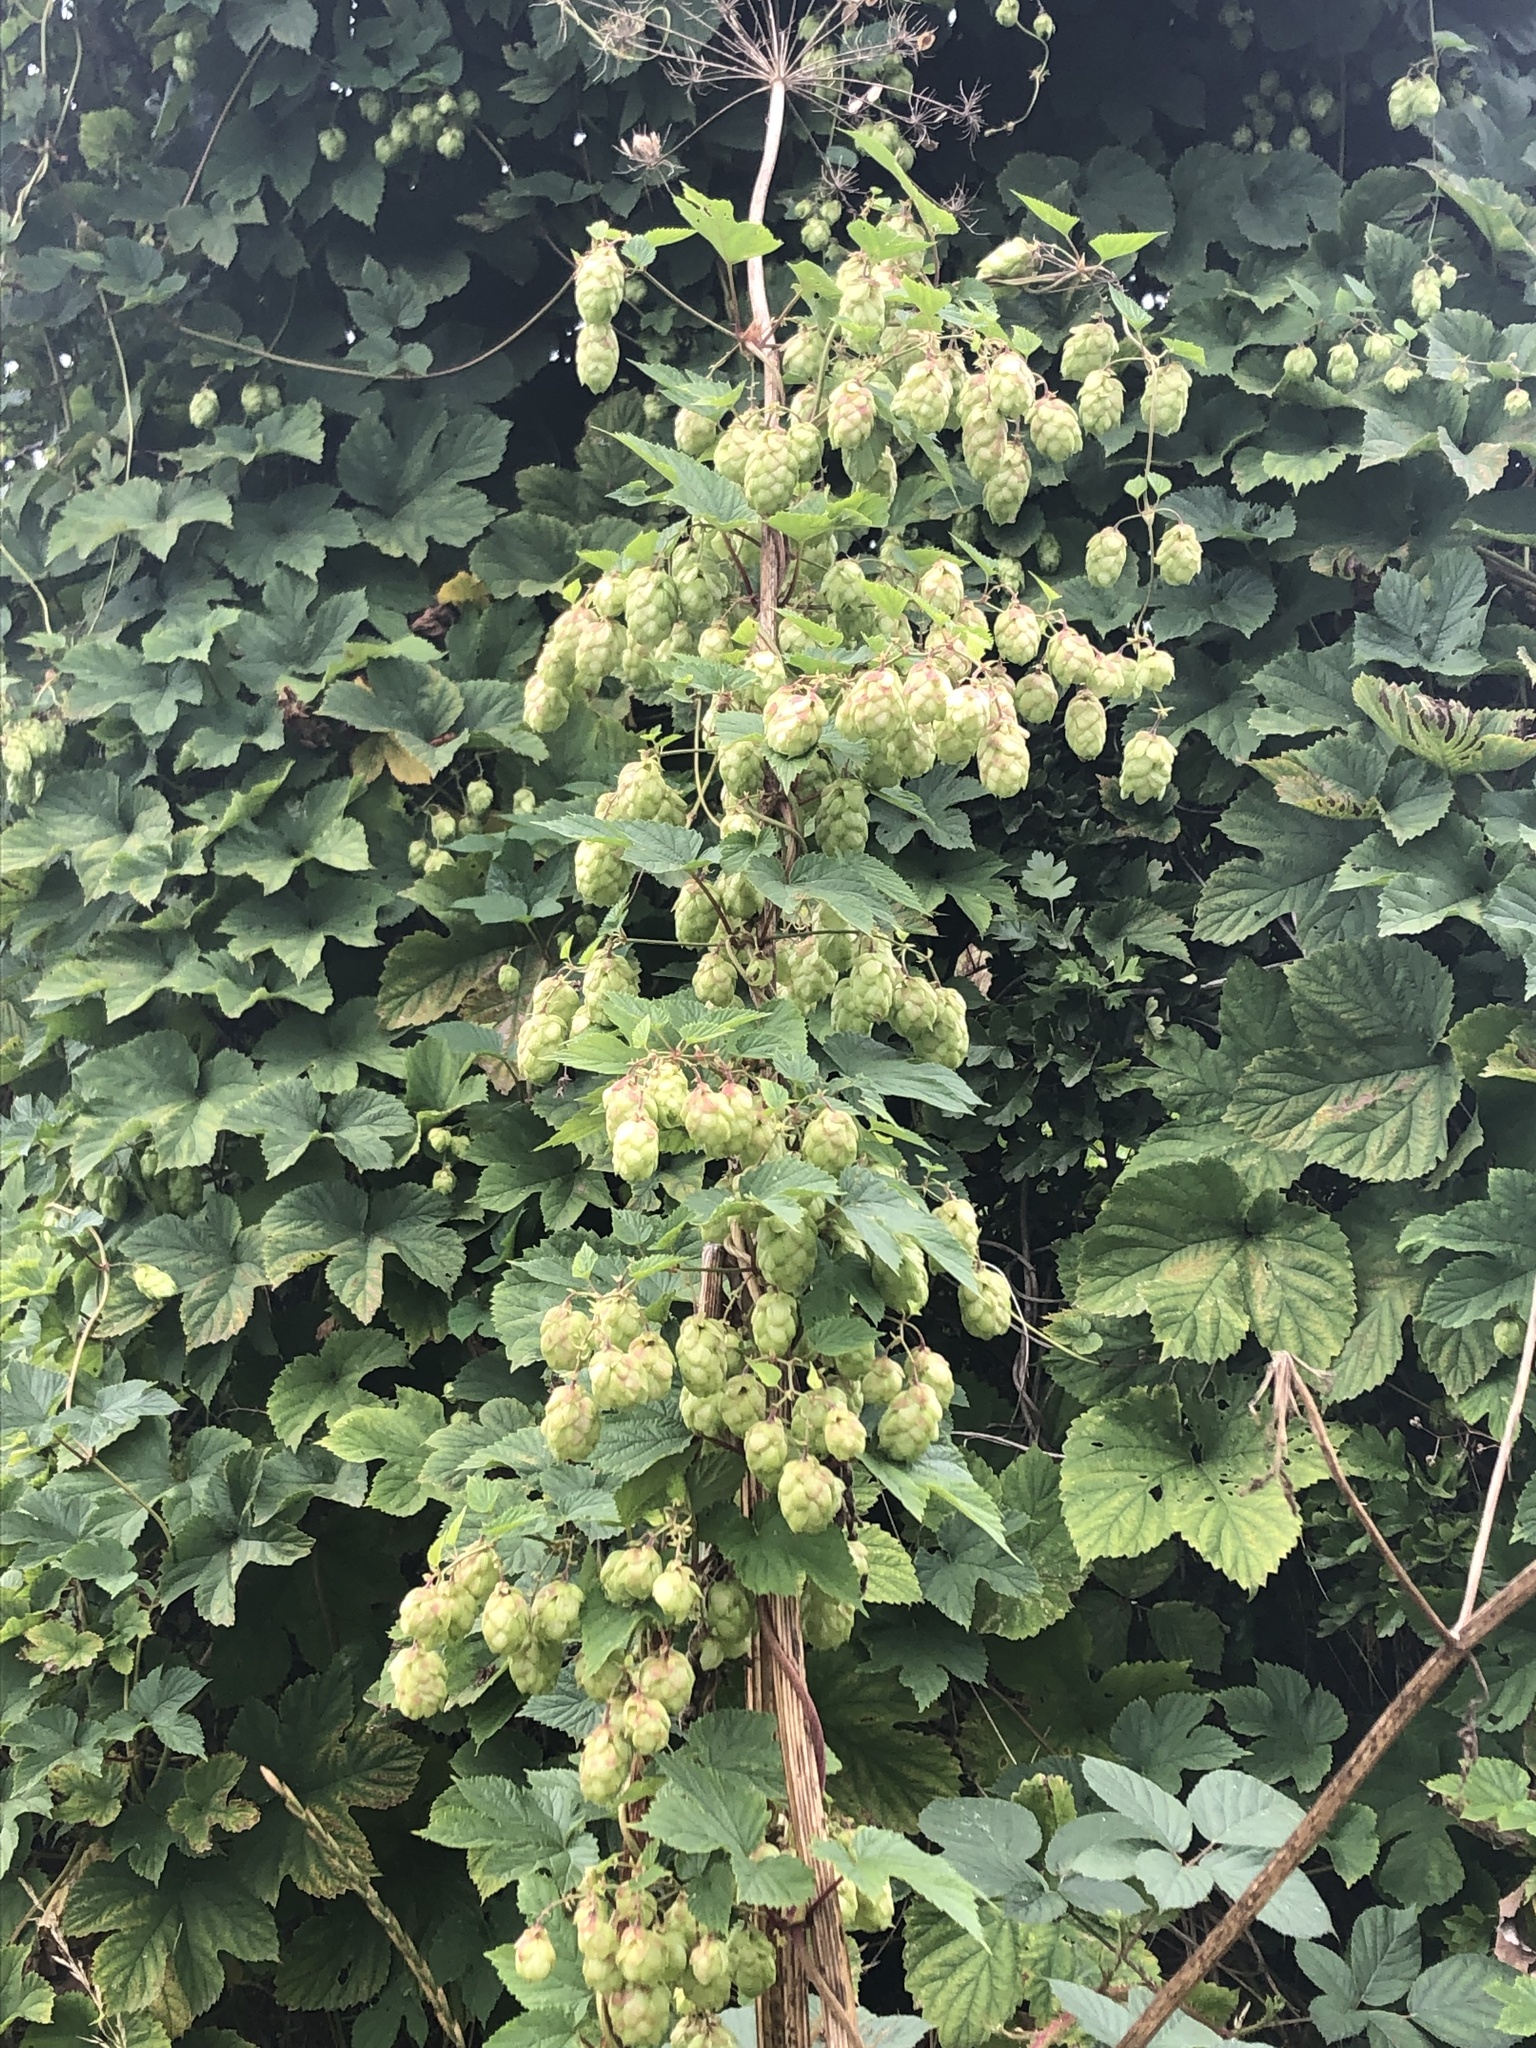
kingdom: Plantae
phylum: Tracheophyta
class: Magnoliopsida
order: Rosales
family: Cannabaceae
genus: Humulus
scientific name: Humulus lupulus
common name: Hop
